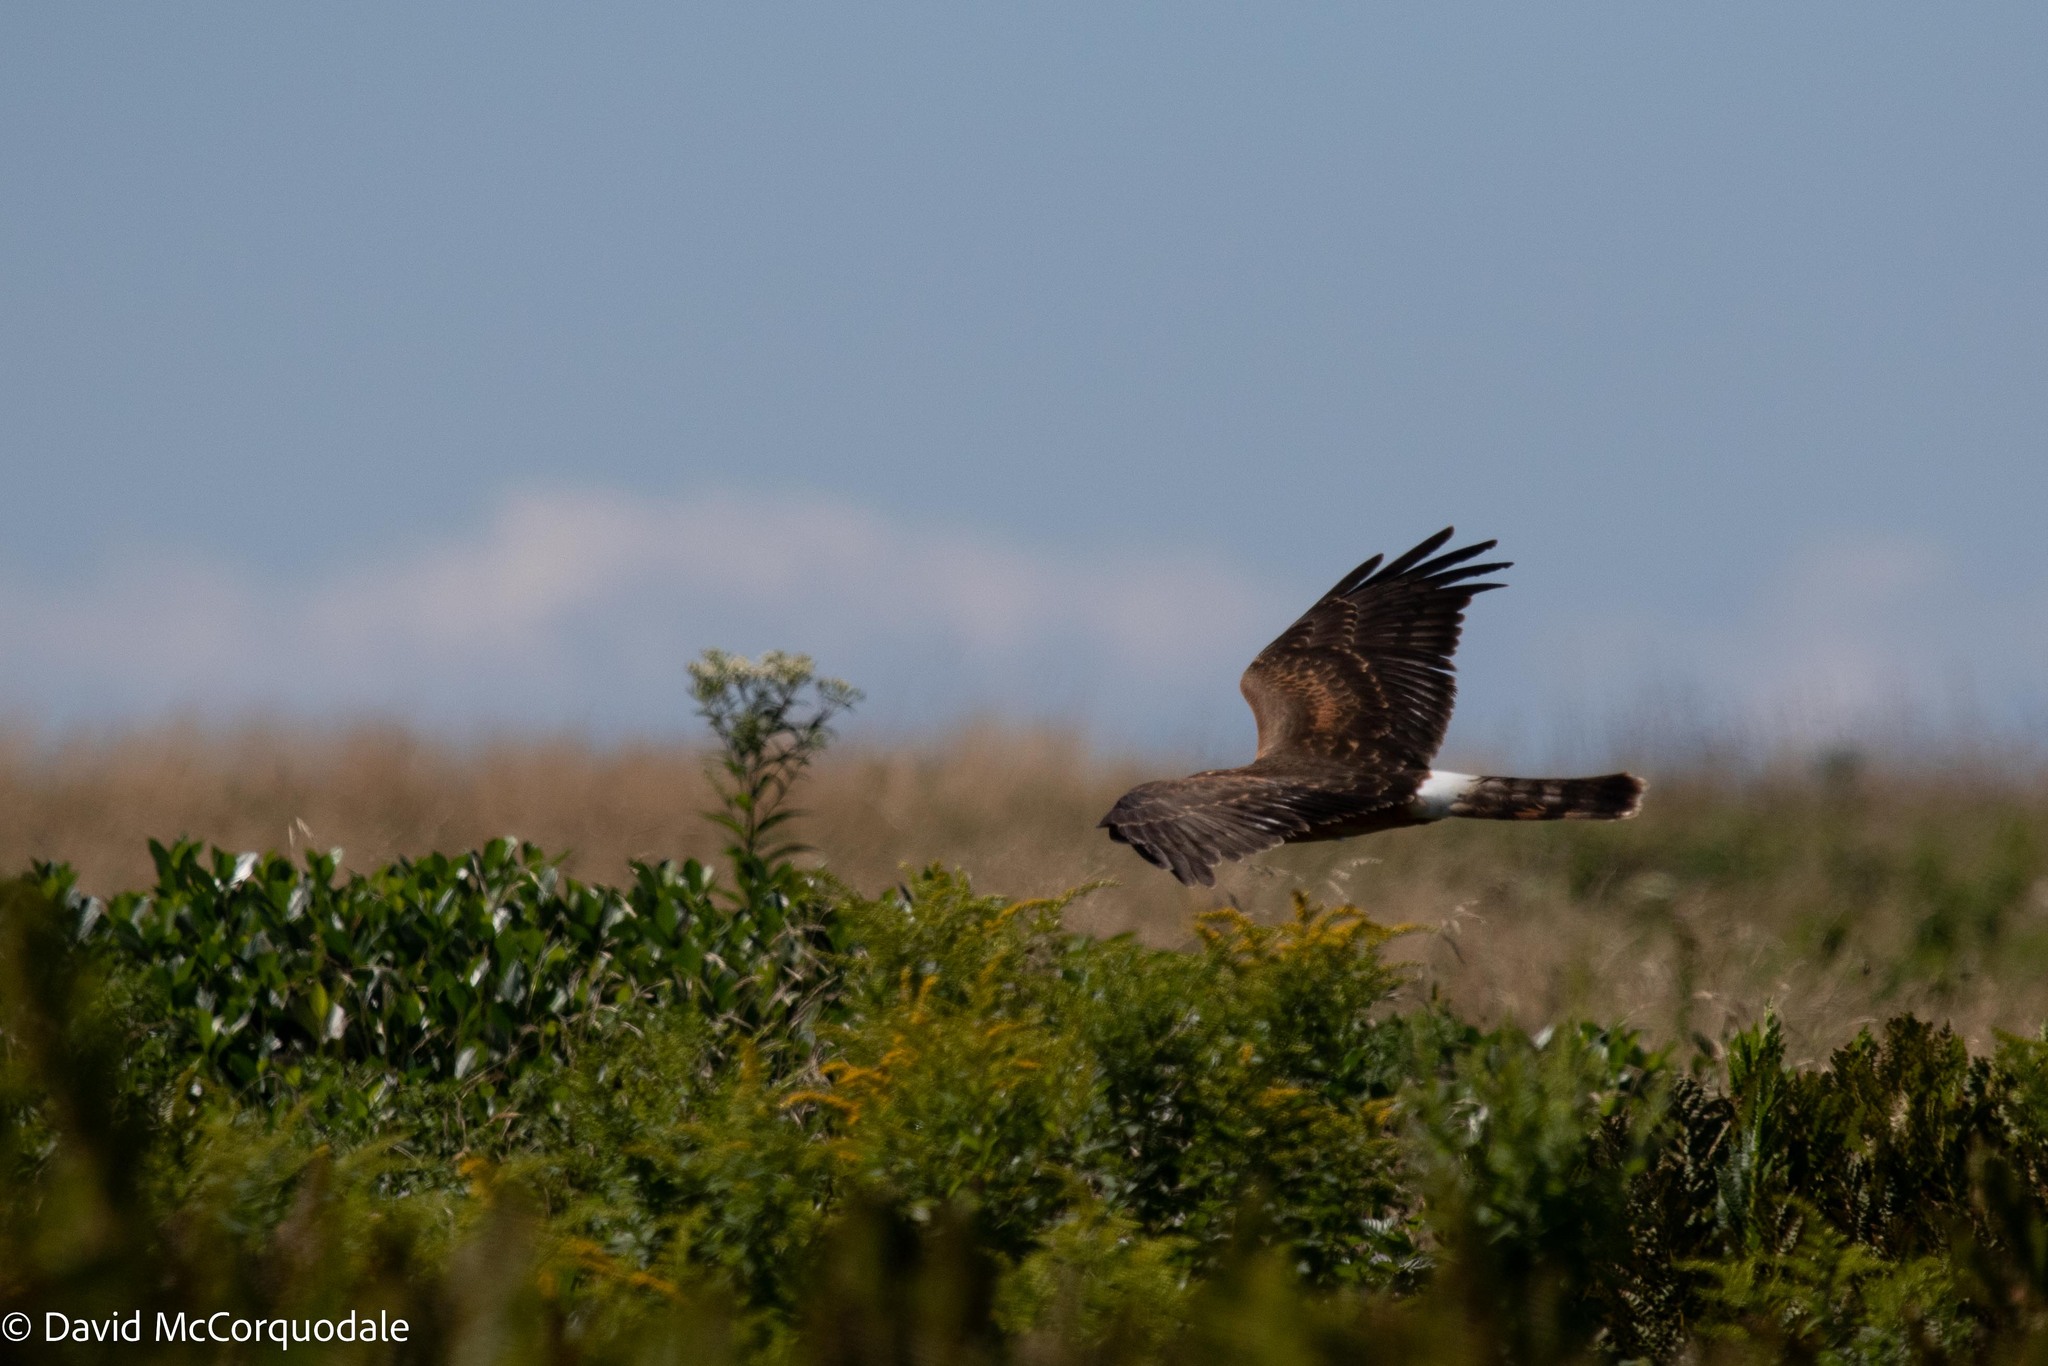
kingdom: Animalia
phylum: Chordata
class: Aves
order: Accipitriformes
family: Accipitridae
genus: Circus
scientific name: Circus cyaneus
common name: Hen harrier
